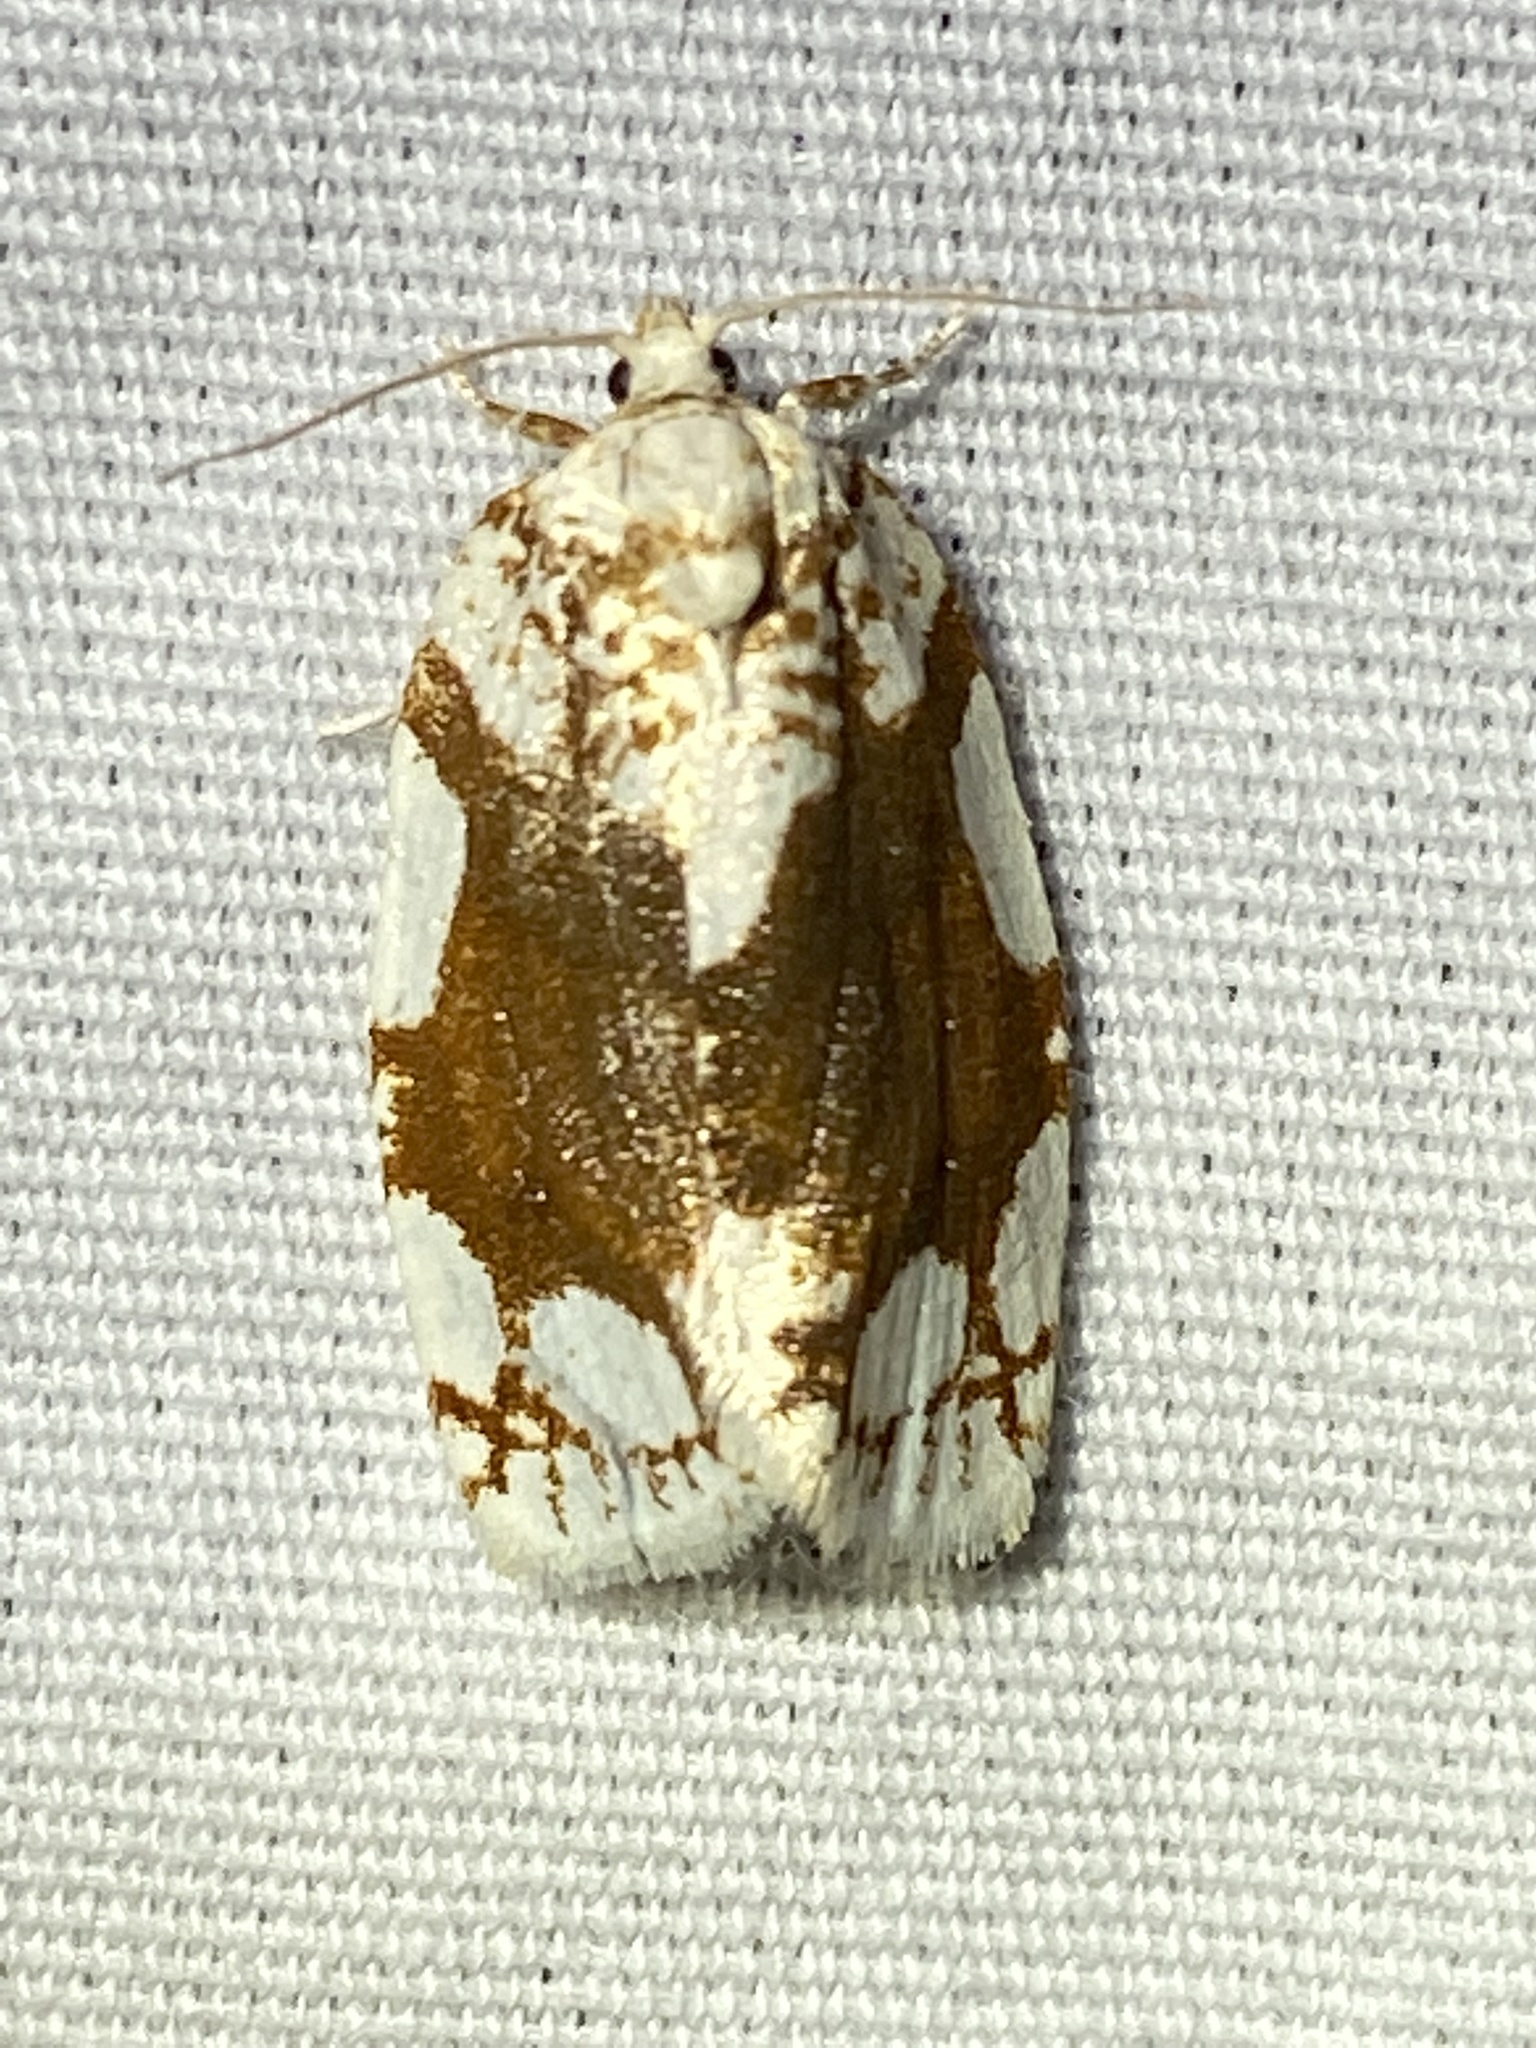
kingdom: Animalia
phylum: Arthropoda
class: Insecta
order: Lepidoptera
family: Tortricidae
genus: Argyrotaenia
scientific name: Argyrotaenia alisellana
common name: White-spotted leafroller moth
